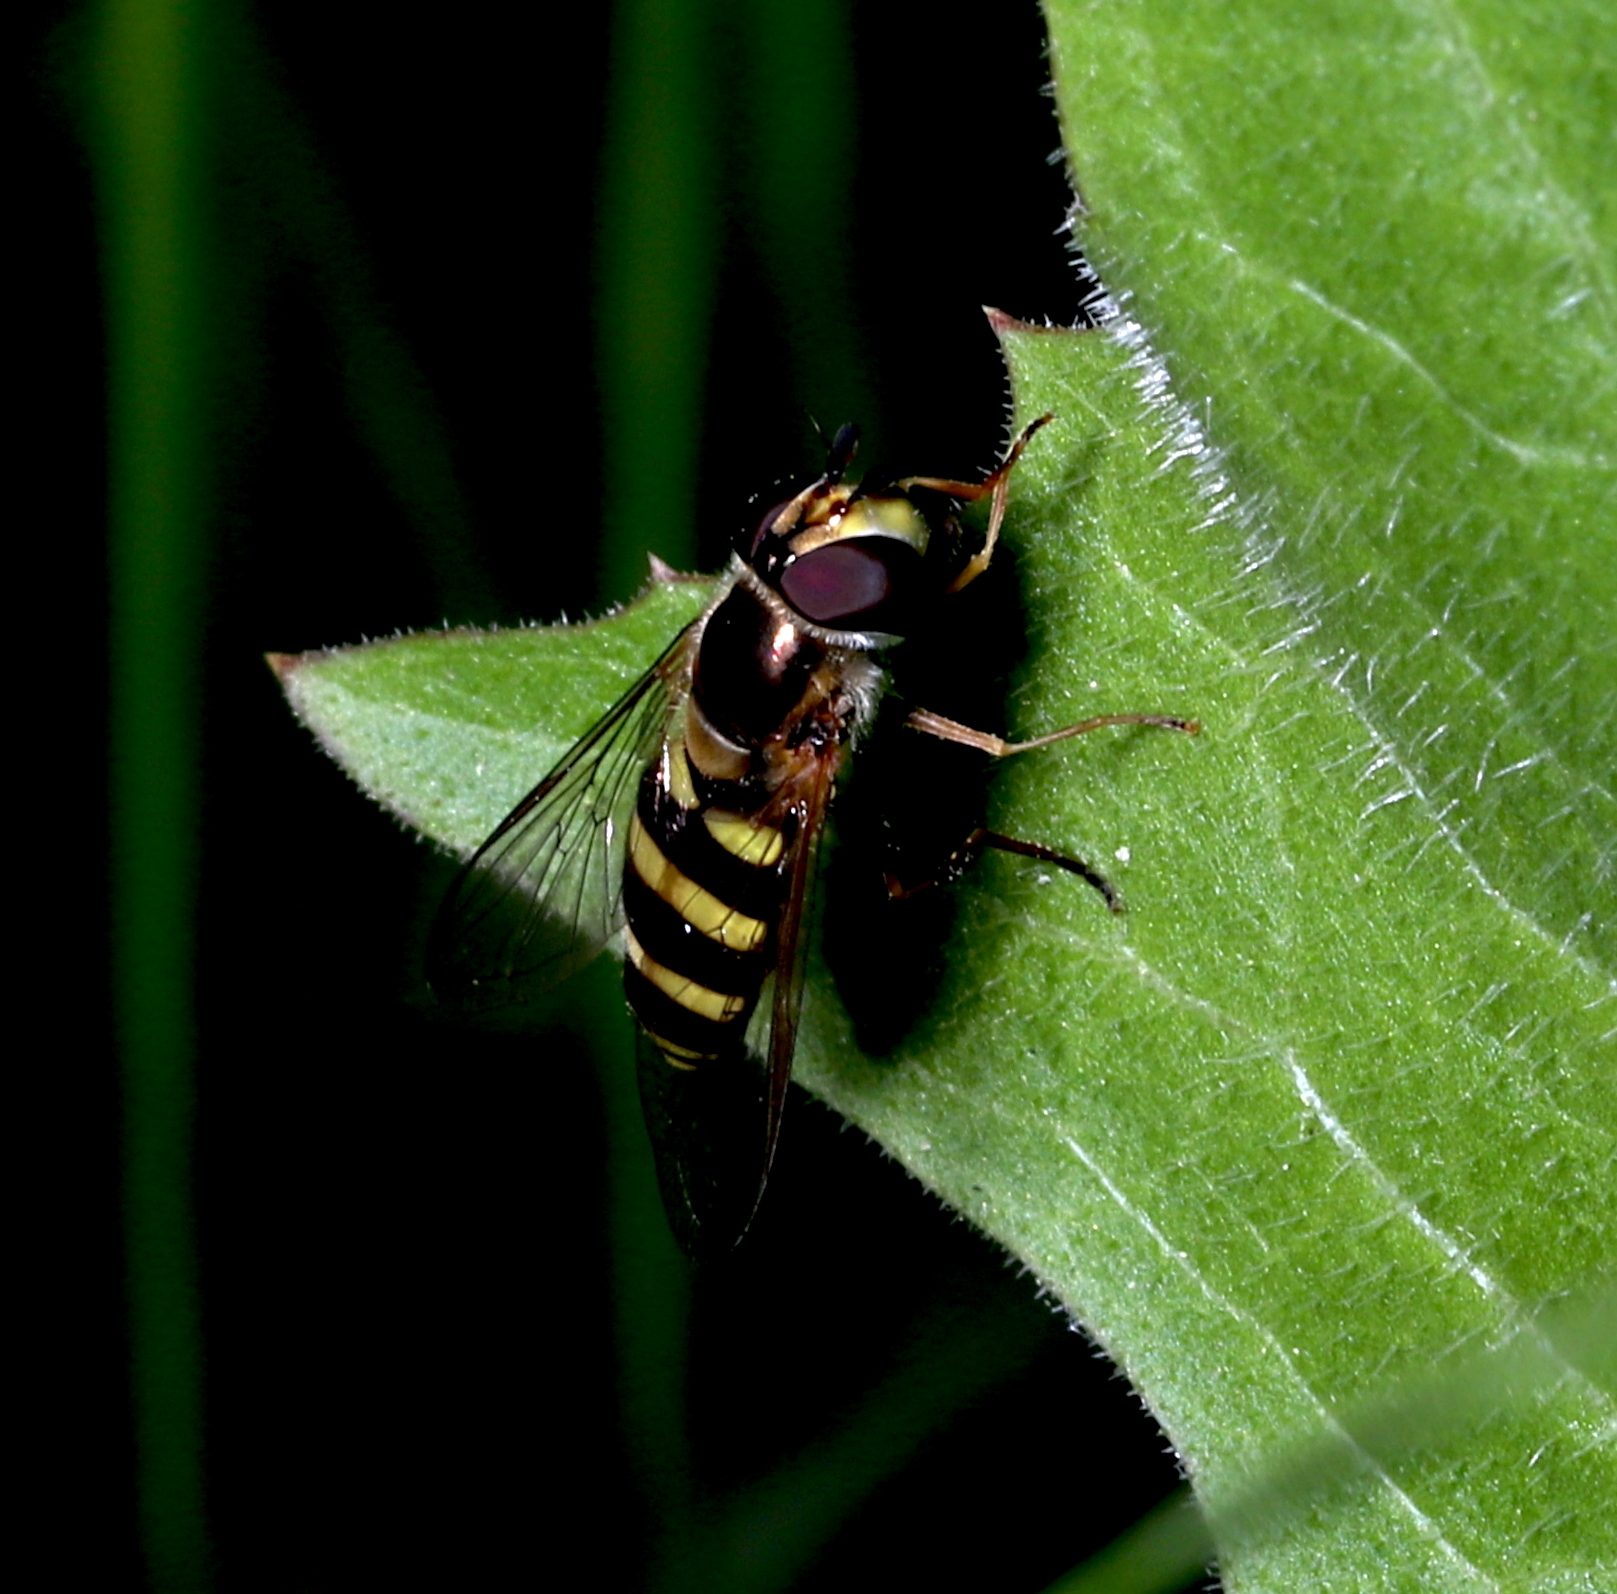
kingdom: Animalia
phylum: Arthropoda
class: Insecta
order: Diptera
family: Syrphidae
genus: Eupeodes
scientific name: Eupeodes
